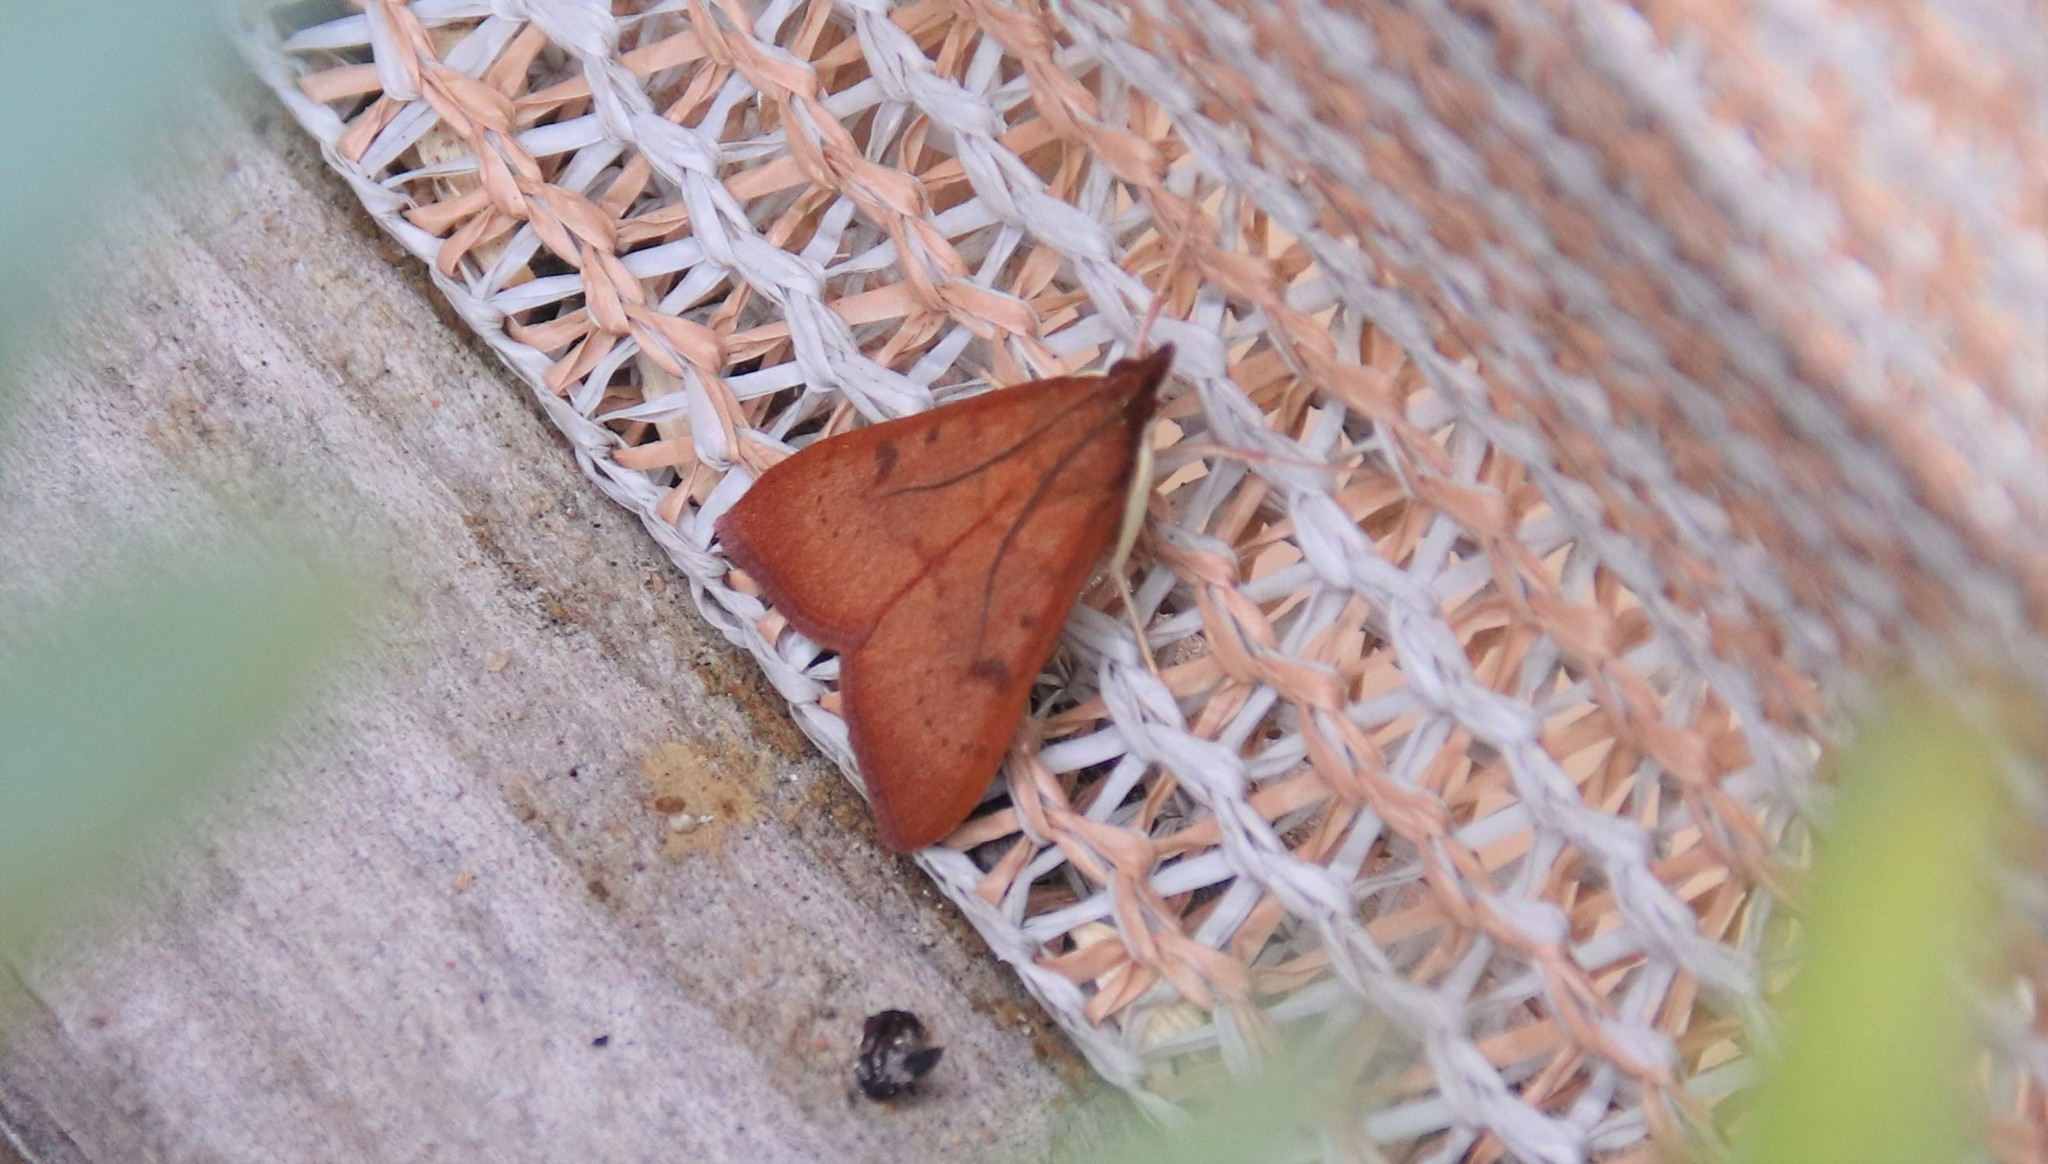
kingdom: Animalia
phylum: Arthropoda
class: Insecta
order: Lepidoptera
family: Crambidae
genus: Uresiphita
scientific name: Uresiphita reversalis
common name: Genista broom moth
